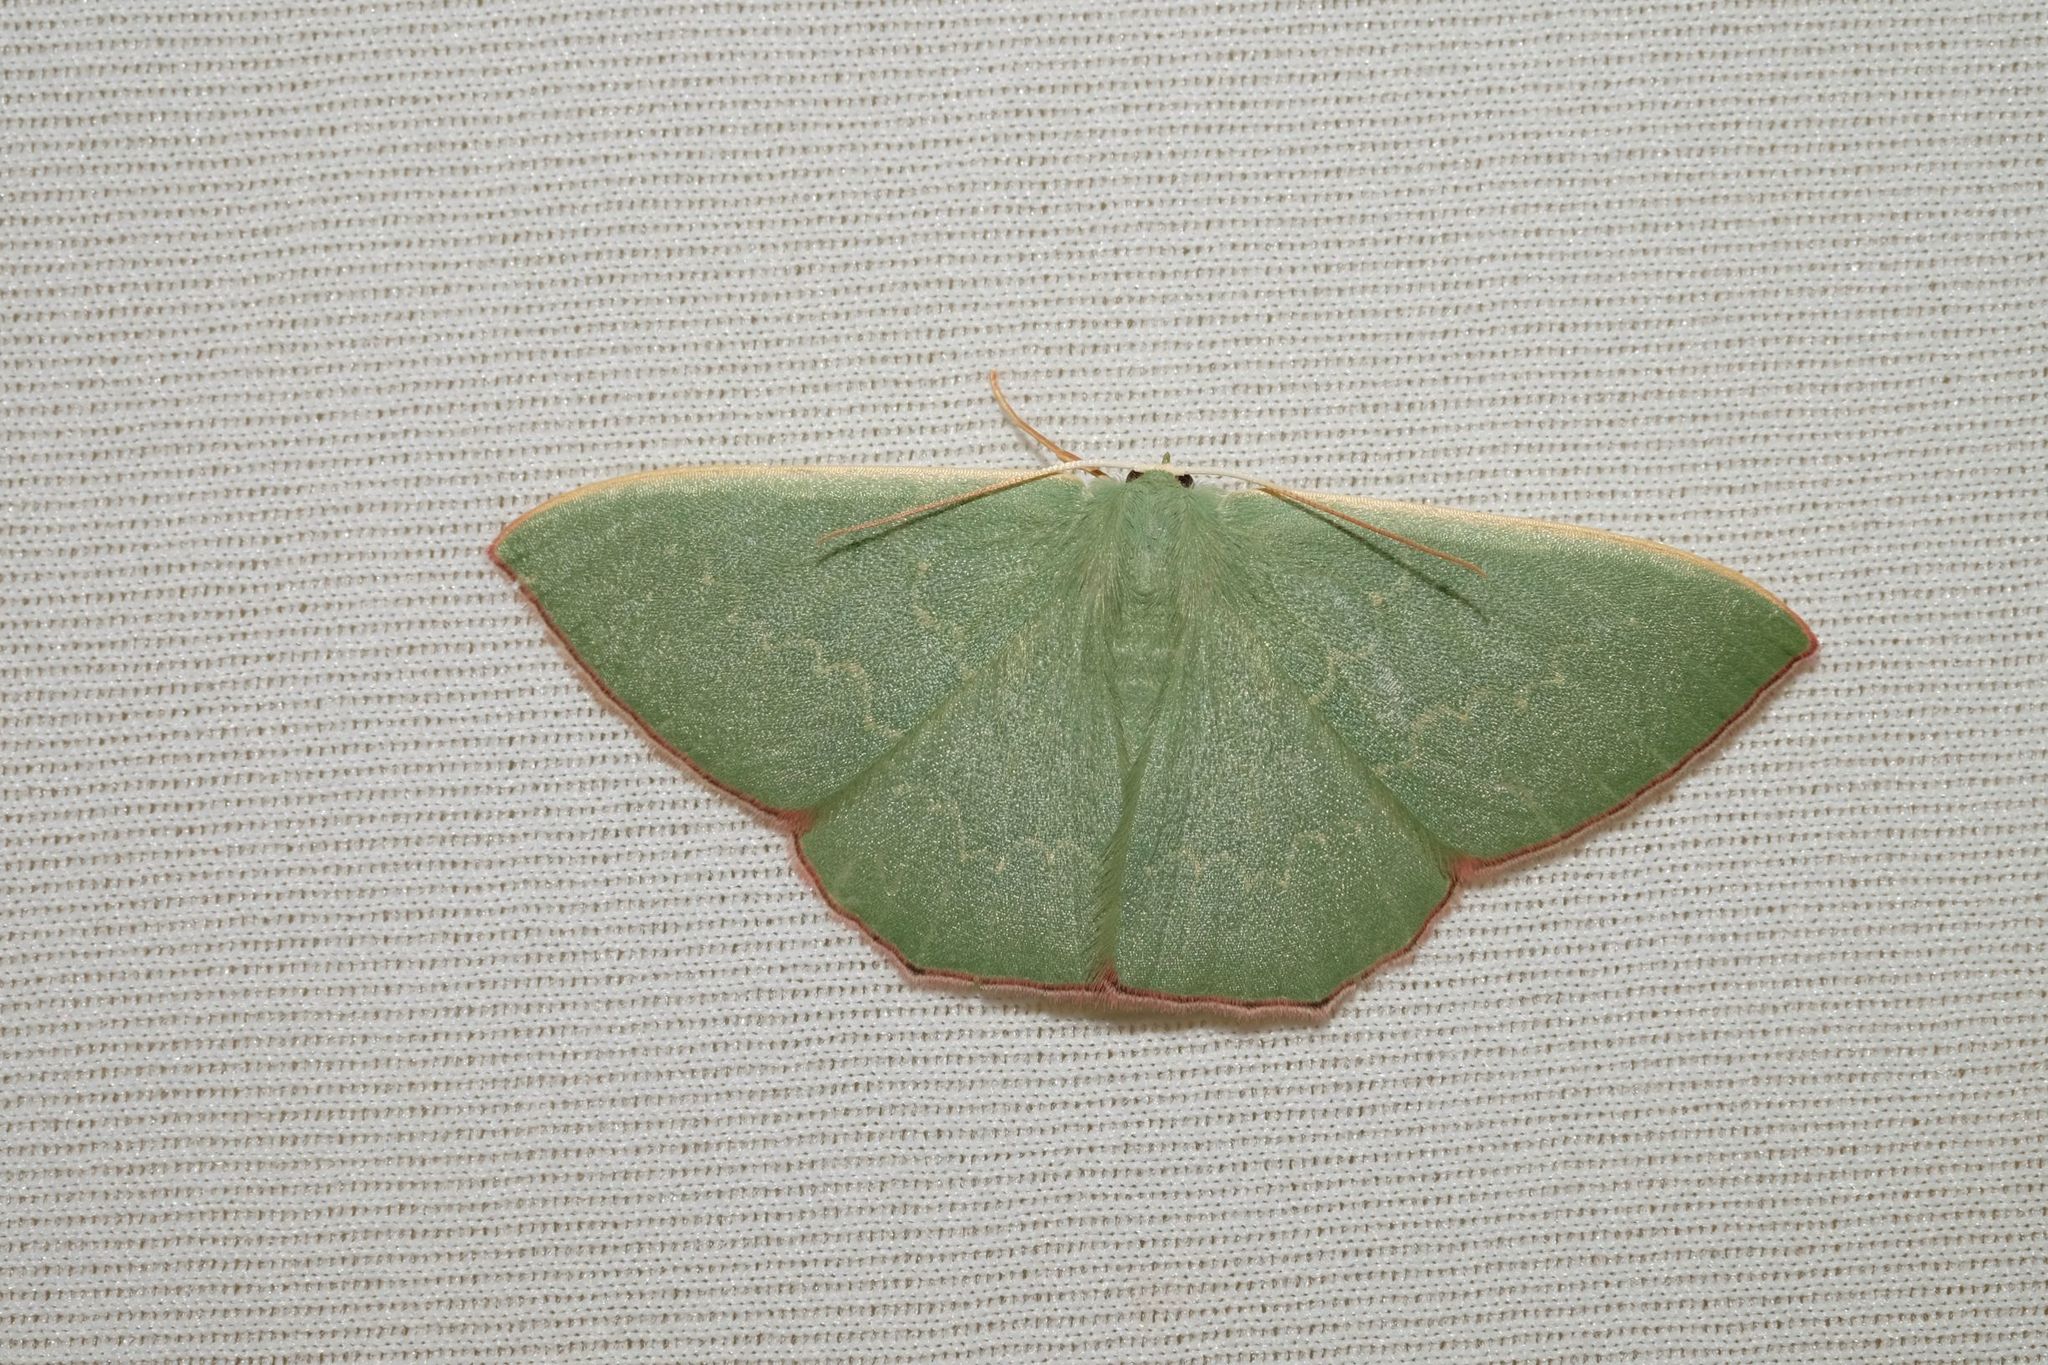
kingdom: Animalia
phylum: Arthropoda
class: Insecta
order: Lepidoptera
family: Geometridae
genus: Prasinocyma
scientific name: Prasinocyma semicrocea
